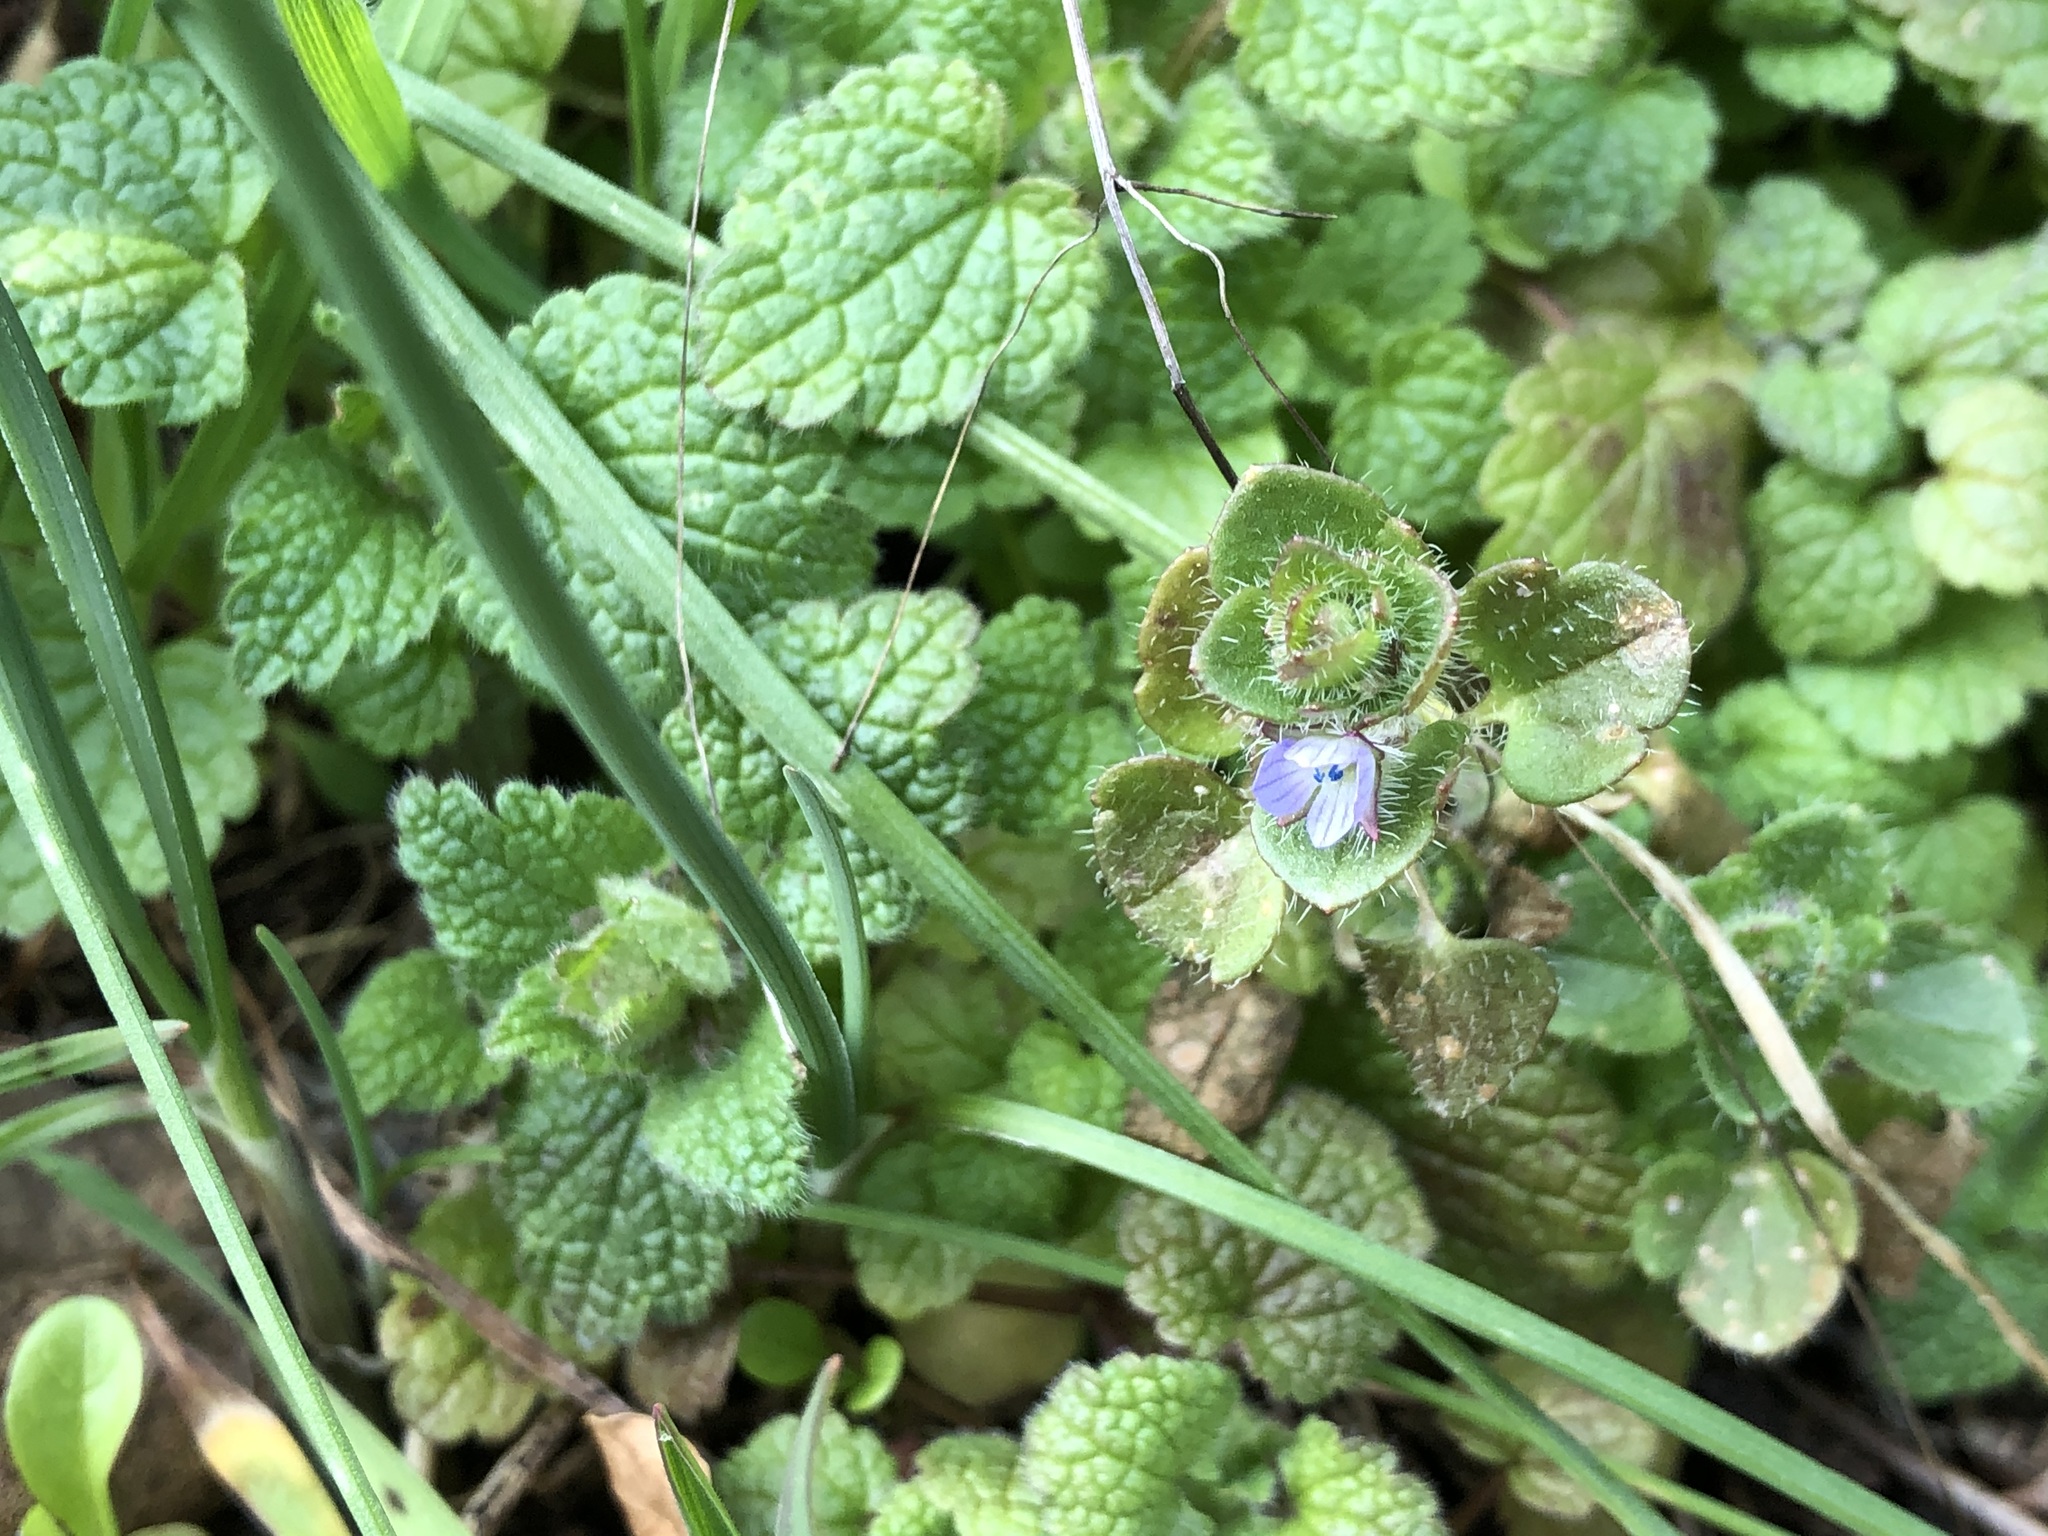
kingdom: Plantae
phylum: Tracheophyta
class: Magnoliopsida
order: Lamiales
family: Plantaginaceae
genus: Veronica
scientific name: Veronica hederifolia
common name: Ivy-leaved speedwell
